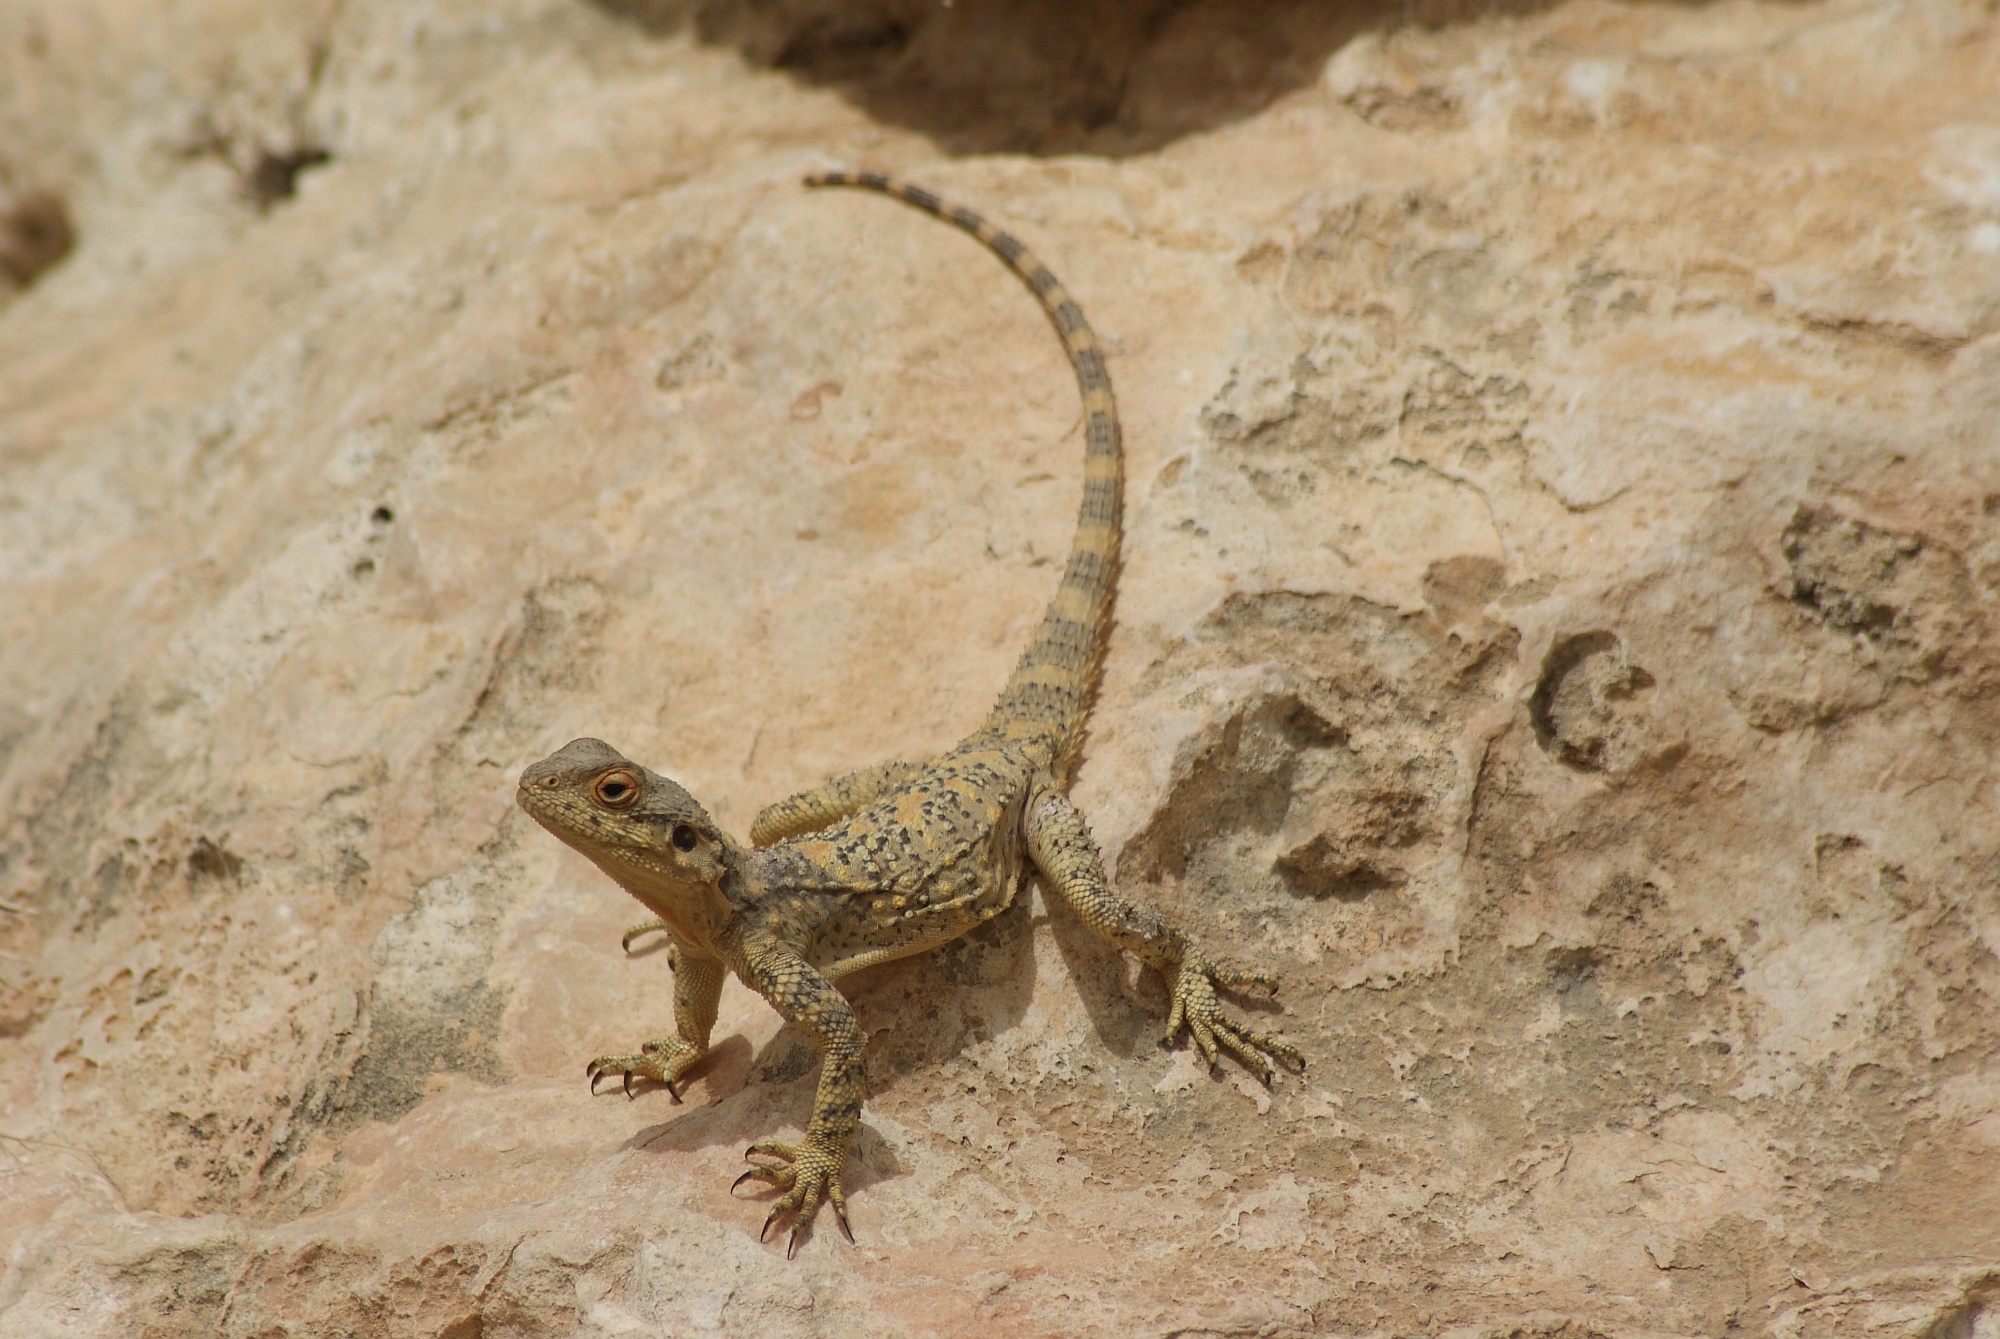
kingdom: Animalia
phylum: Chordata
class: Squamata
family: Agamidae
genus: Laudakia
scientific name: Laudakia vulgaris
